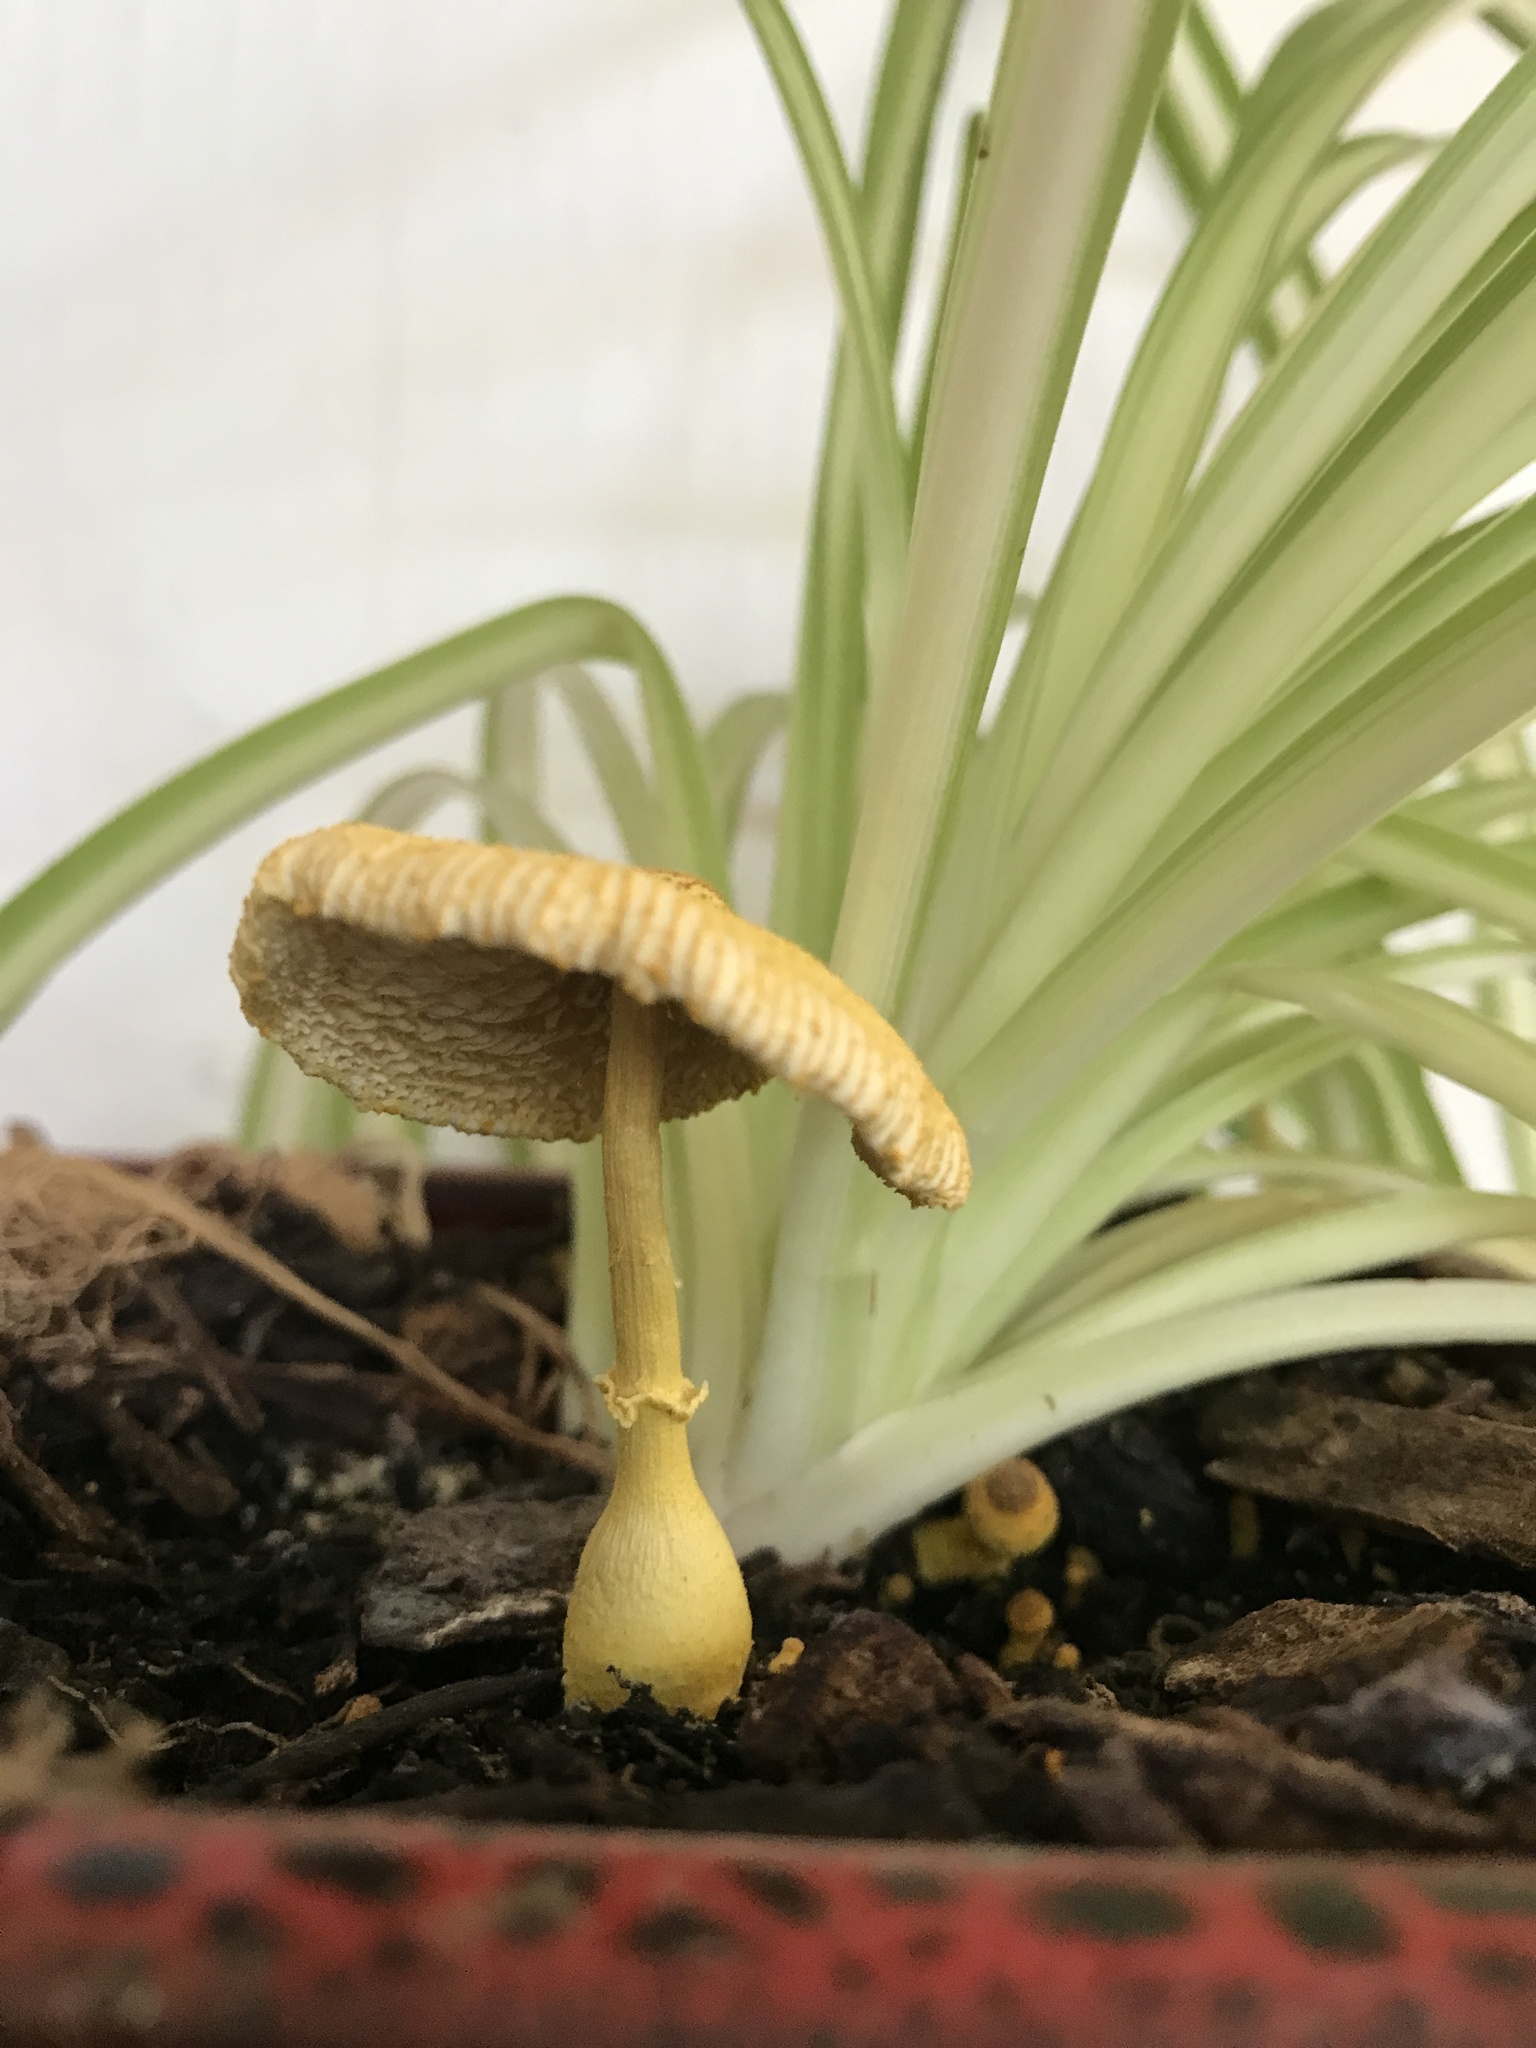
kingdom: Fungi
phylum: Basidiomycota
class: Agaricomycetes
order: Agaricales
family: Agaricaceae
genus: Leucocoprinus
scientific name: Leucocoprinus birnbaumii
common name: Plantpot dapperling
